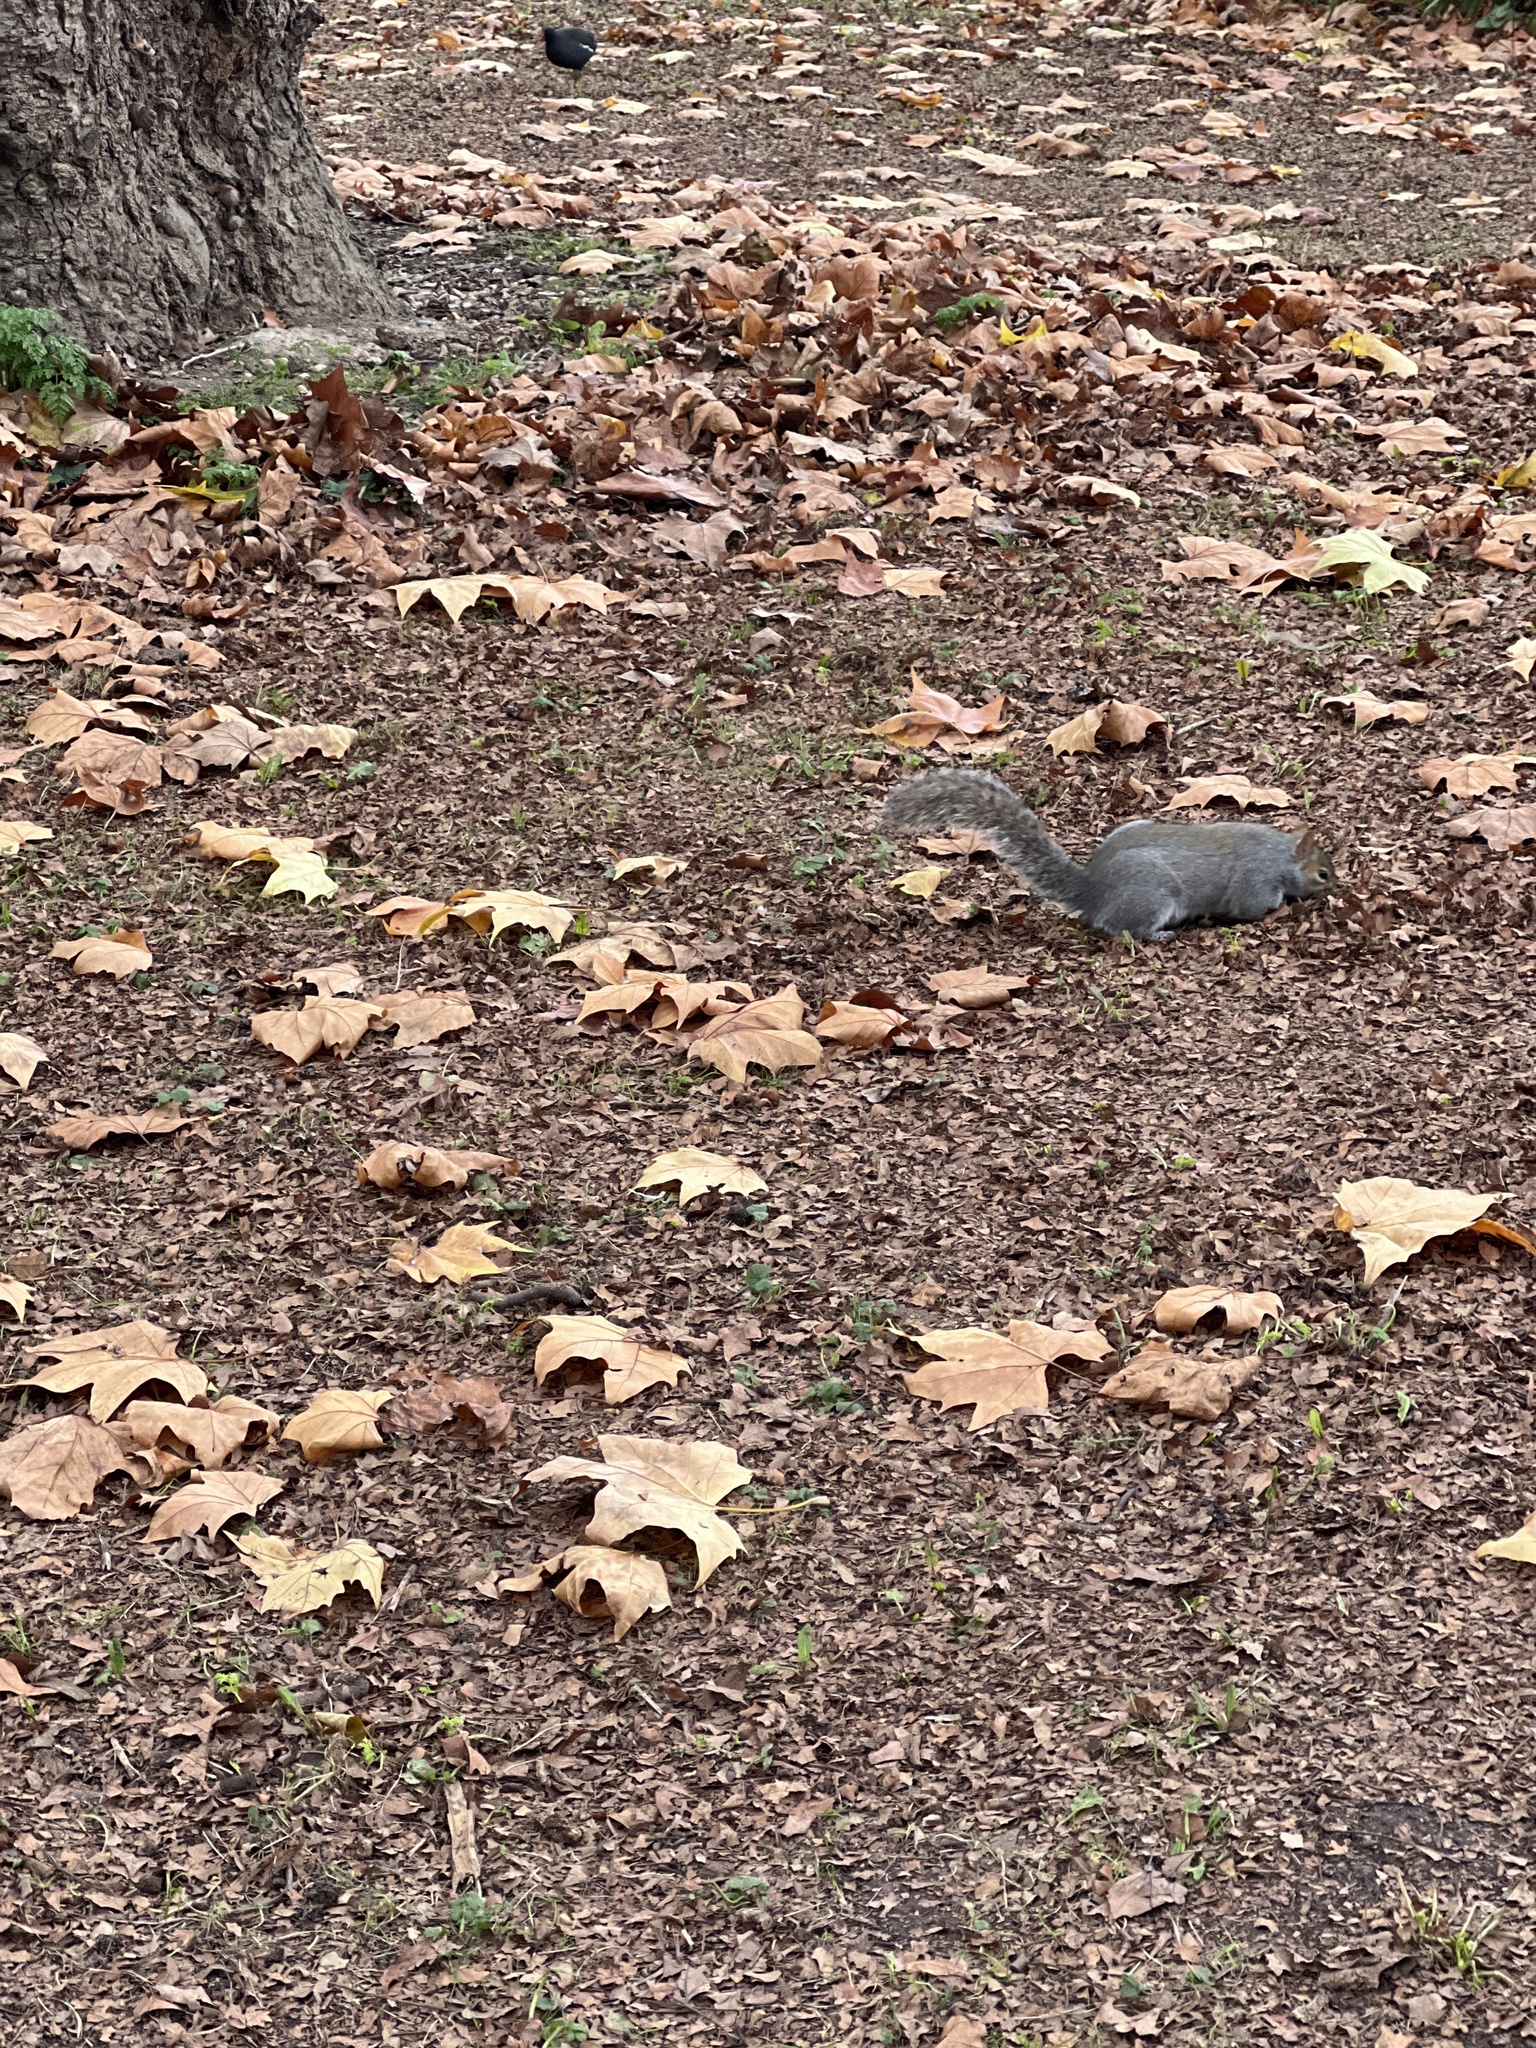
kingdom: Animalia
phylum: Chordata
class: Mammalia
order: Rodentia
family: Sciuridae
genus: Sciurus
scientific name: Sciurus carolinensis
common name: Eastern gray squirrel
